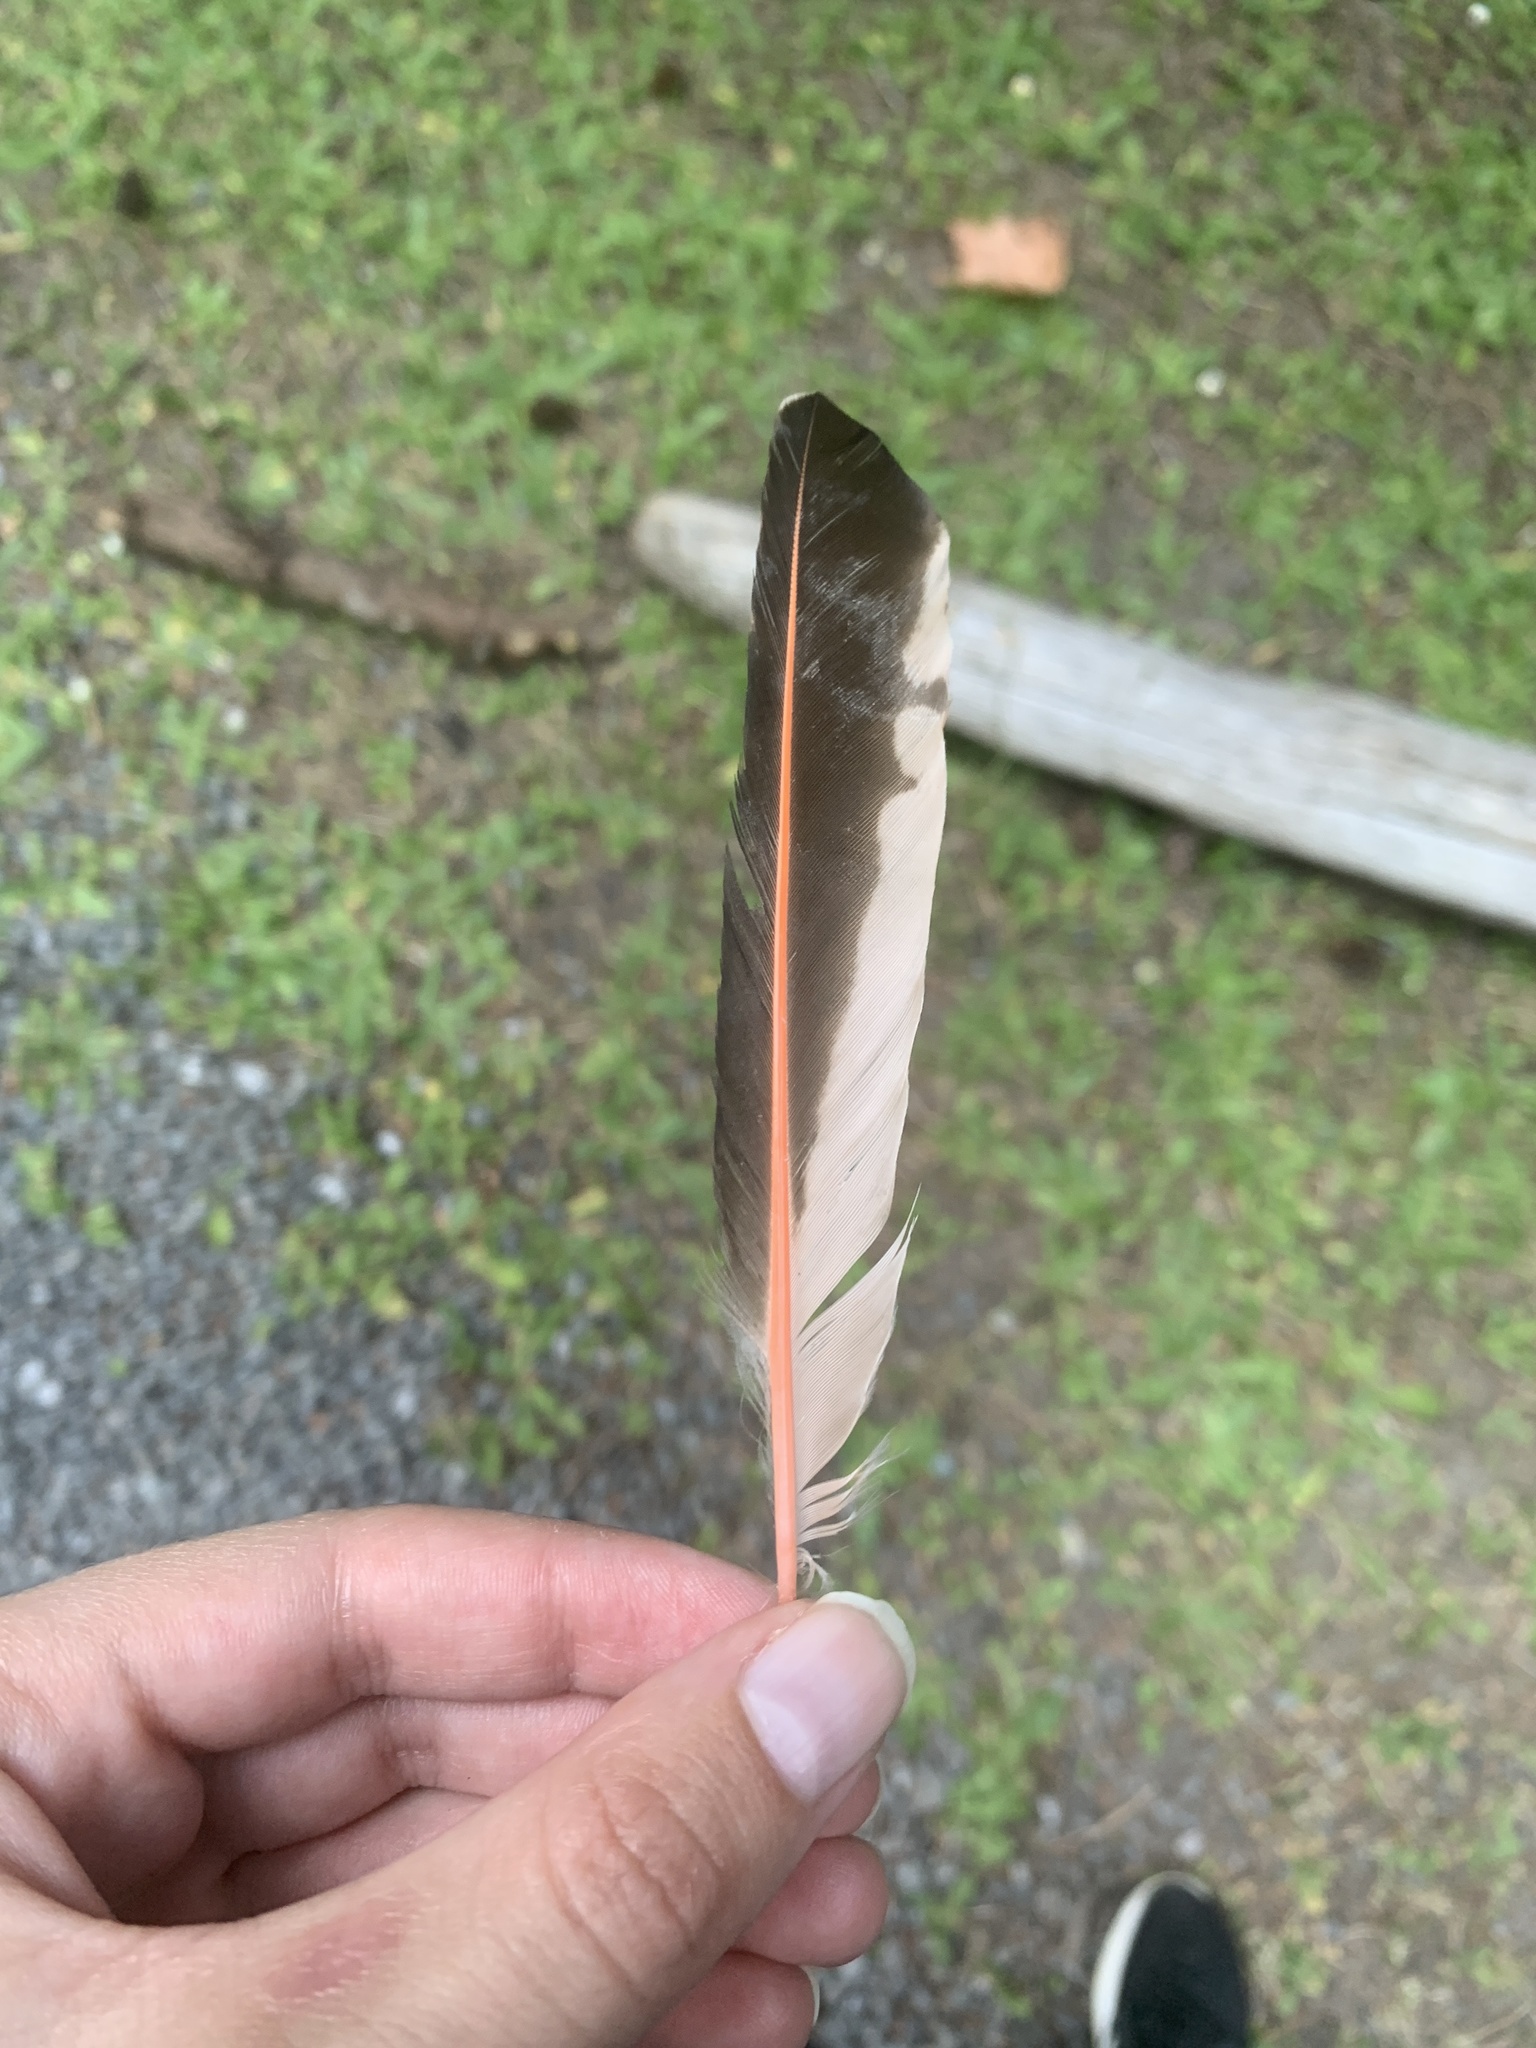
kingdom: Animalia
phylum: Chordata
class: Aves
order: Piciformes
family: Picidae
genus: Colaptes
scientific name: Colaptes auratus
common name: Northern flicker
